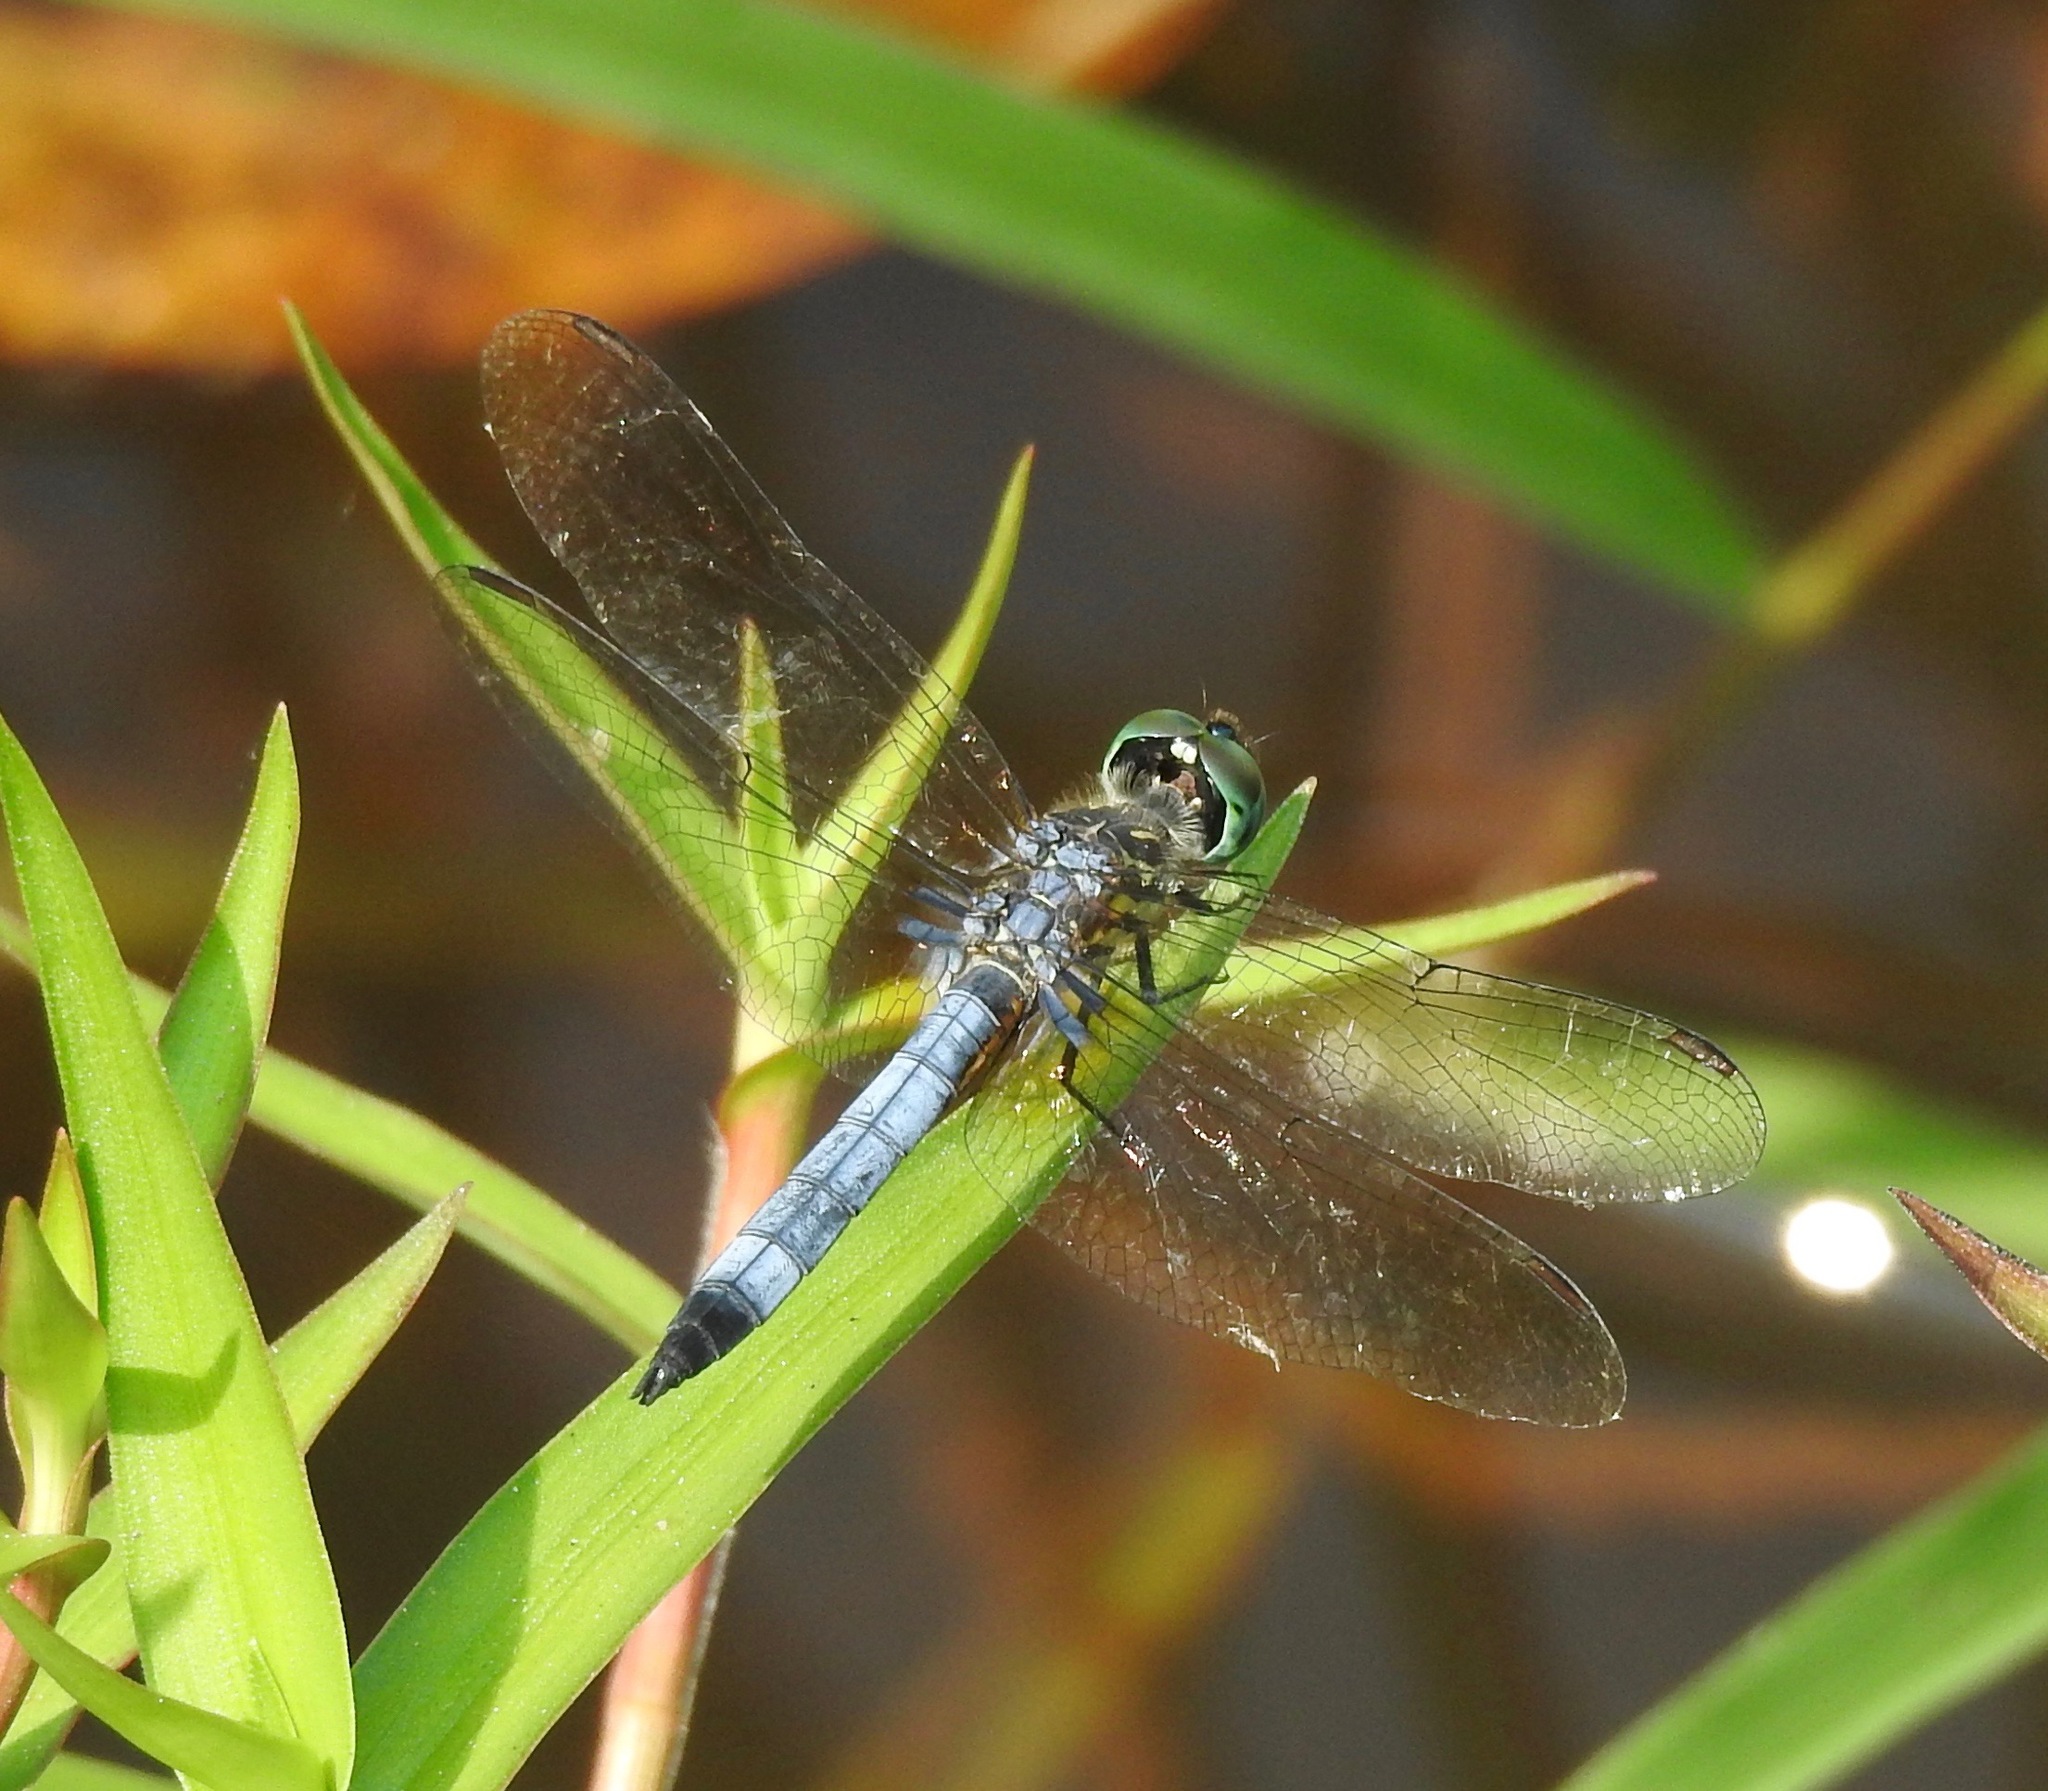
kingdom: Animalia
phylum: Arthropoda
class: Insecta
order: Odonata
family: Libellulidae
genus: Pachydiplax
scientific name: Pachydiplax longipennis
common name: Blue dasher
